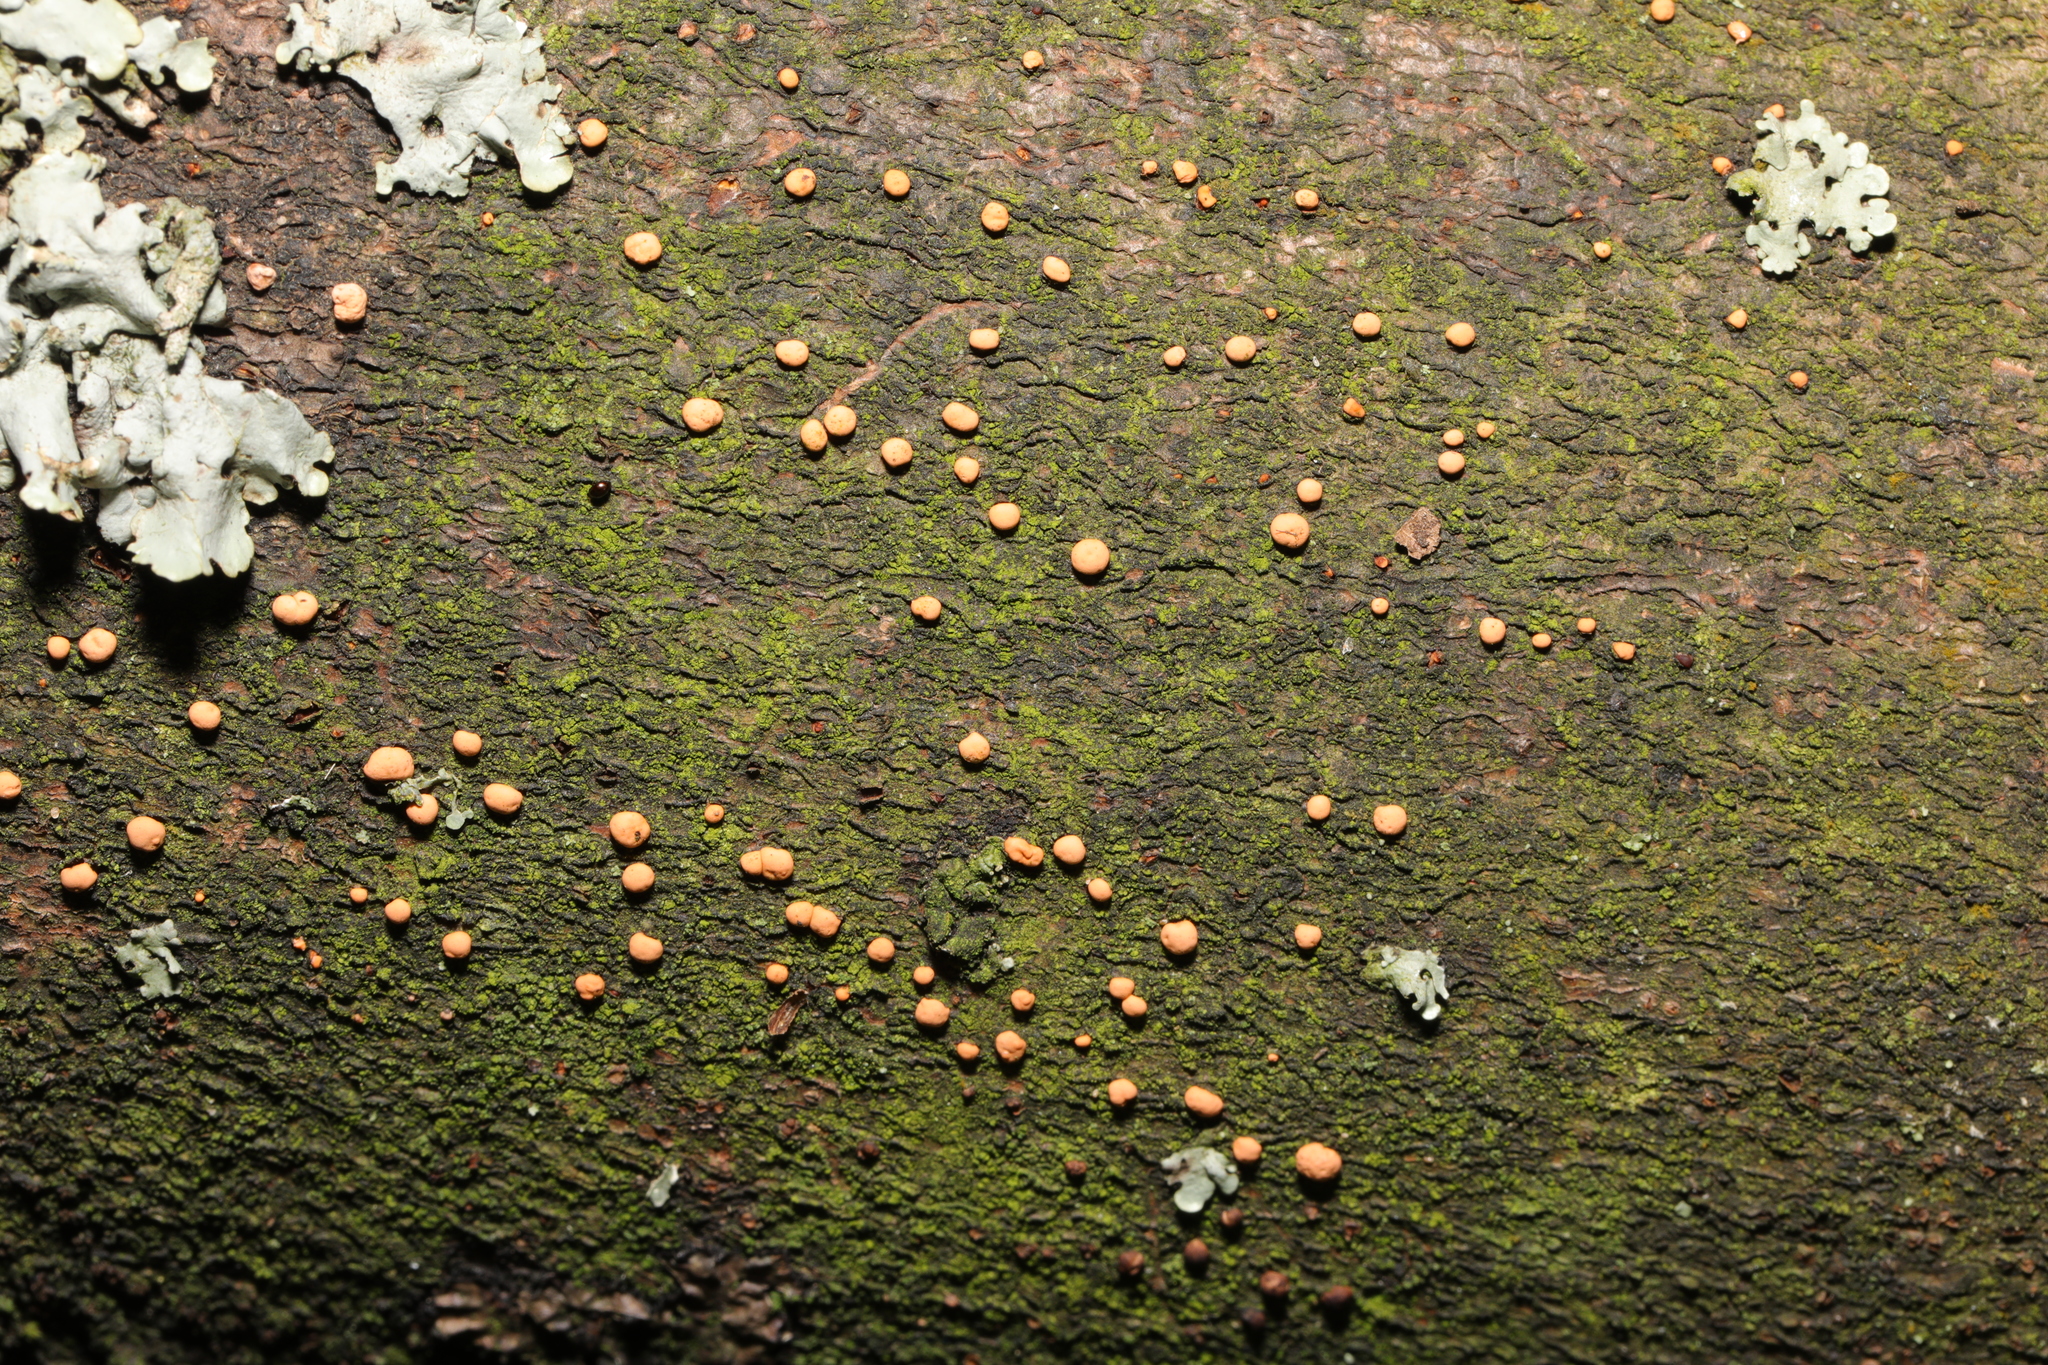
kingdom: Fungi
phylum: Ascomycota
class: Sordariomycetes
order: Hypocreales
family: Nectriaceae
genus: Nectria
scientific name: Nectria cinnabarina
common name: Coral spot
